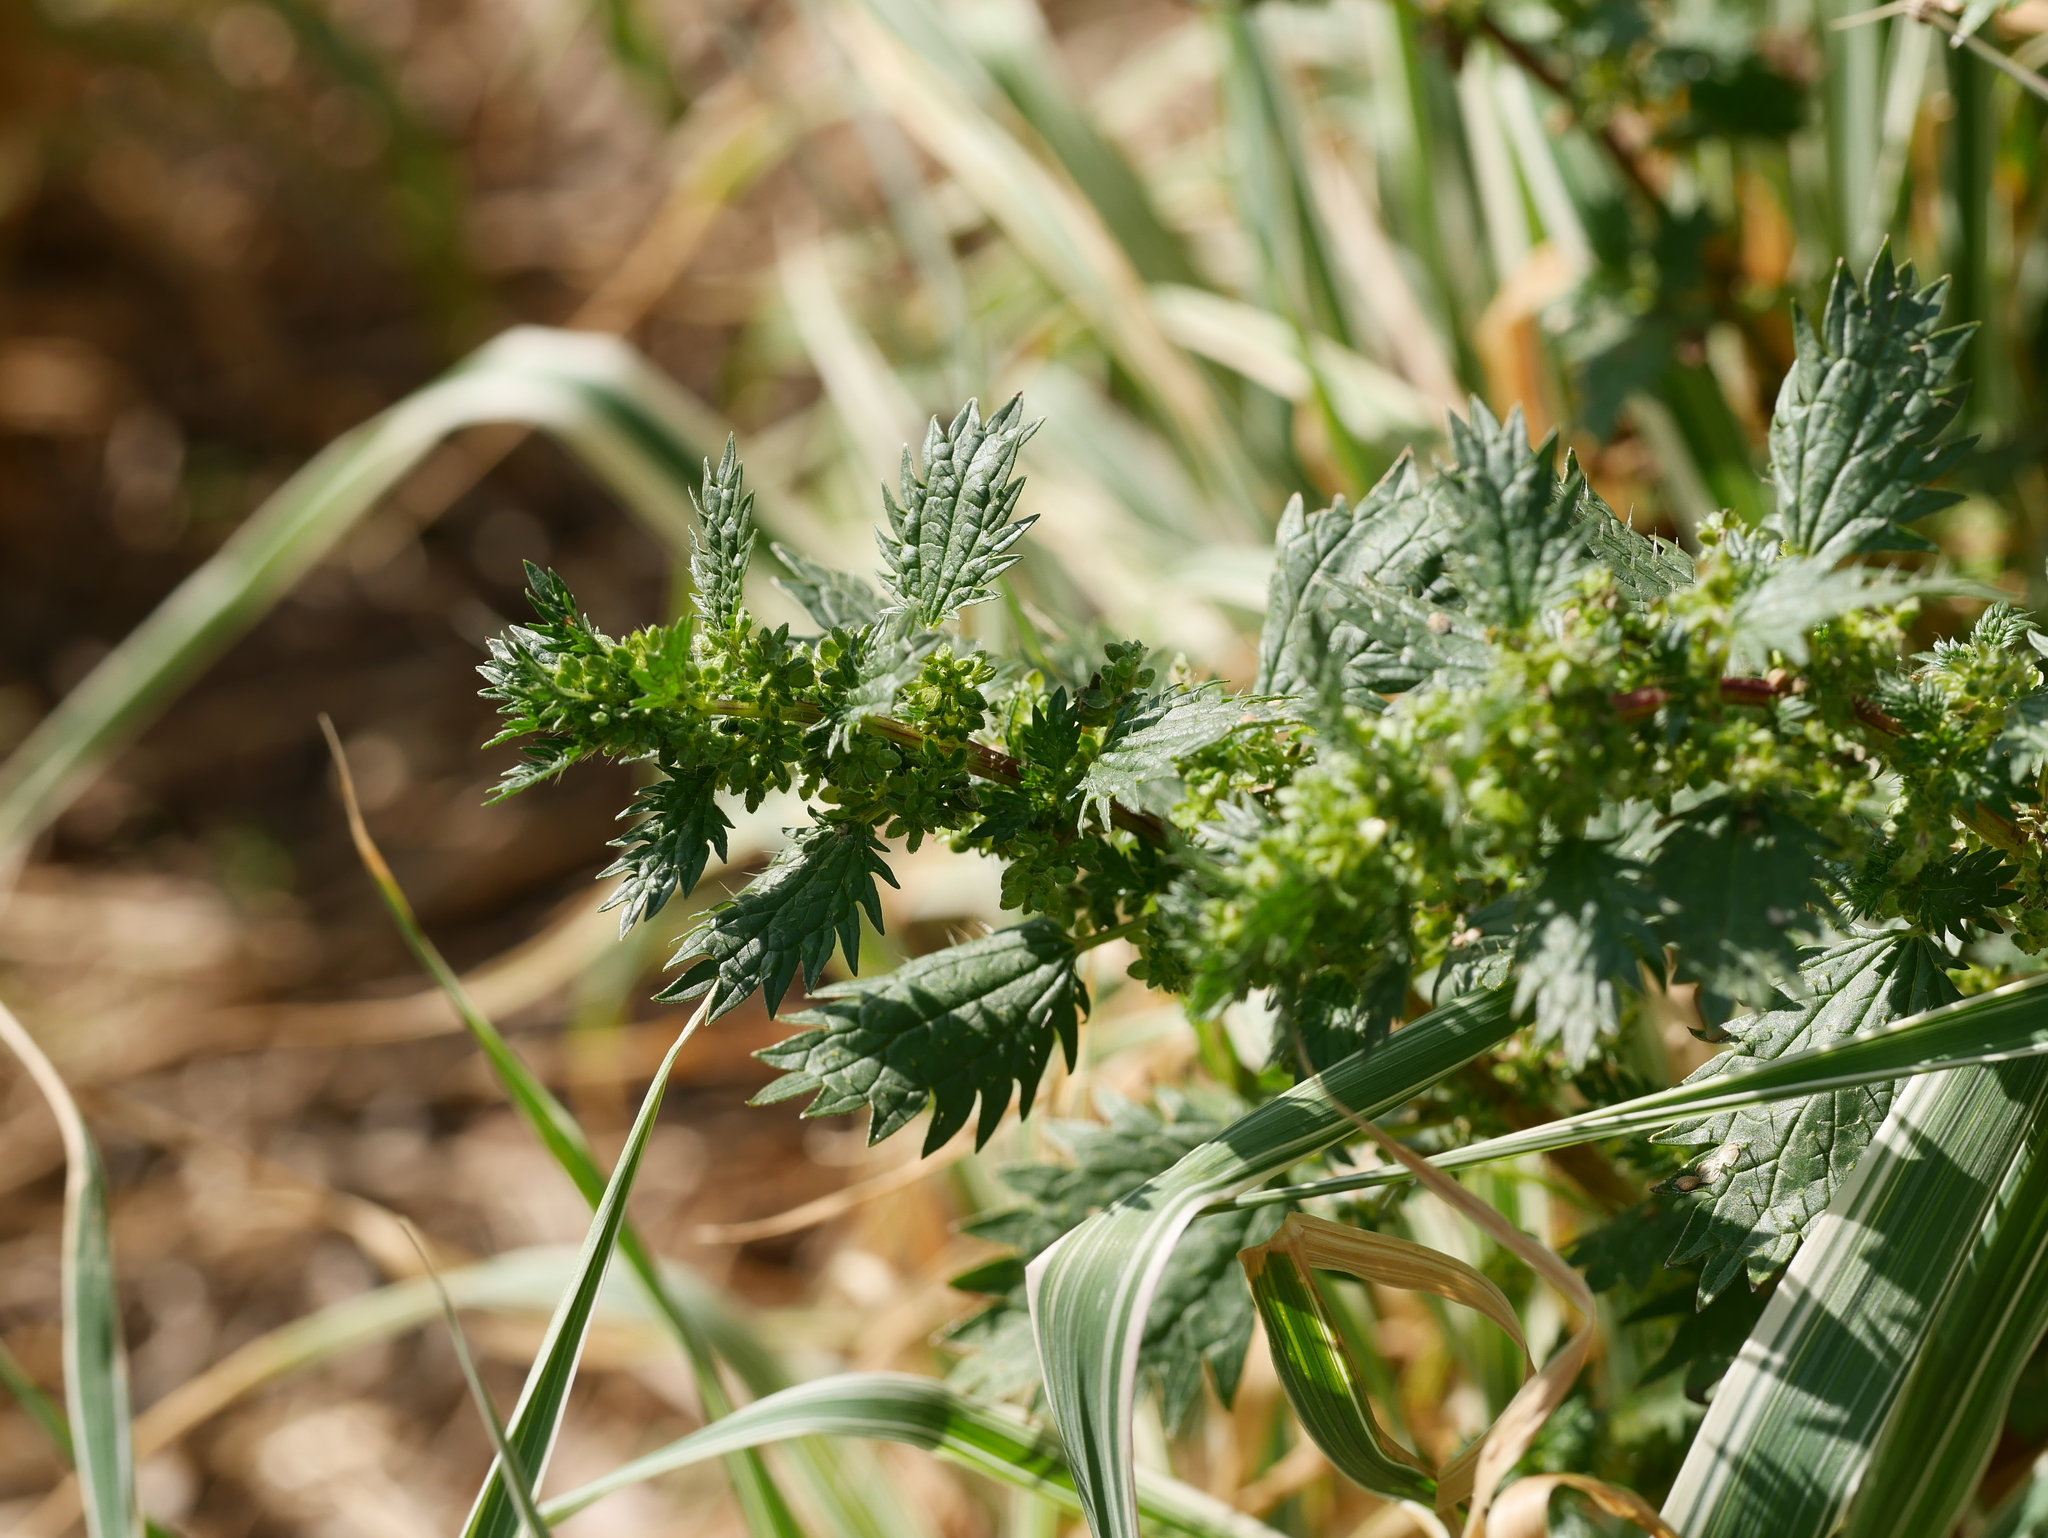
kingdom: Plantae
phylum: Tracheophyta
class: Magnoliopsida
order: Rosales
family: Urticaceae
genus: Urtica
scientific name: Urtica urens
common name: Dwarf nettle
